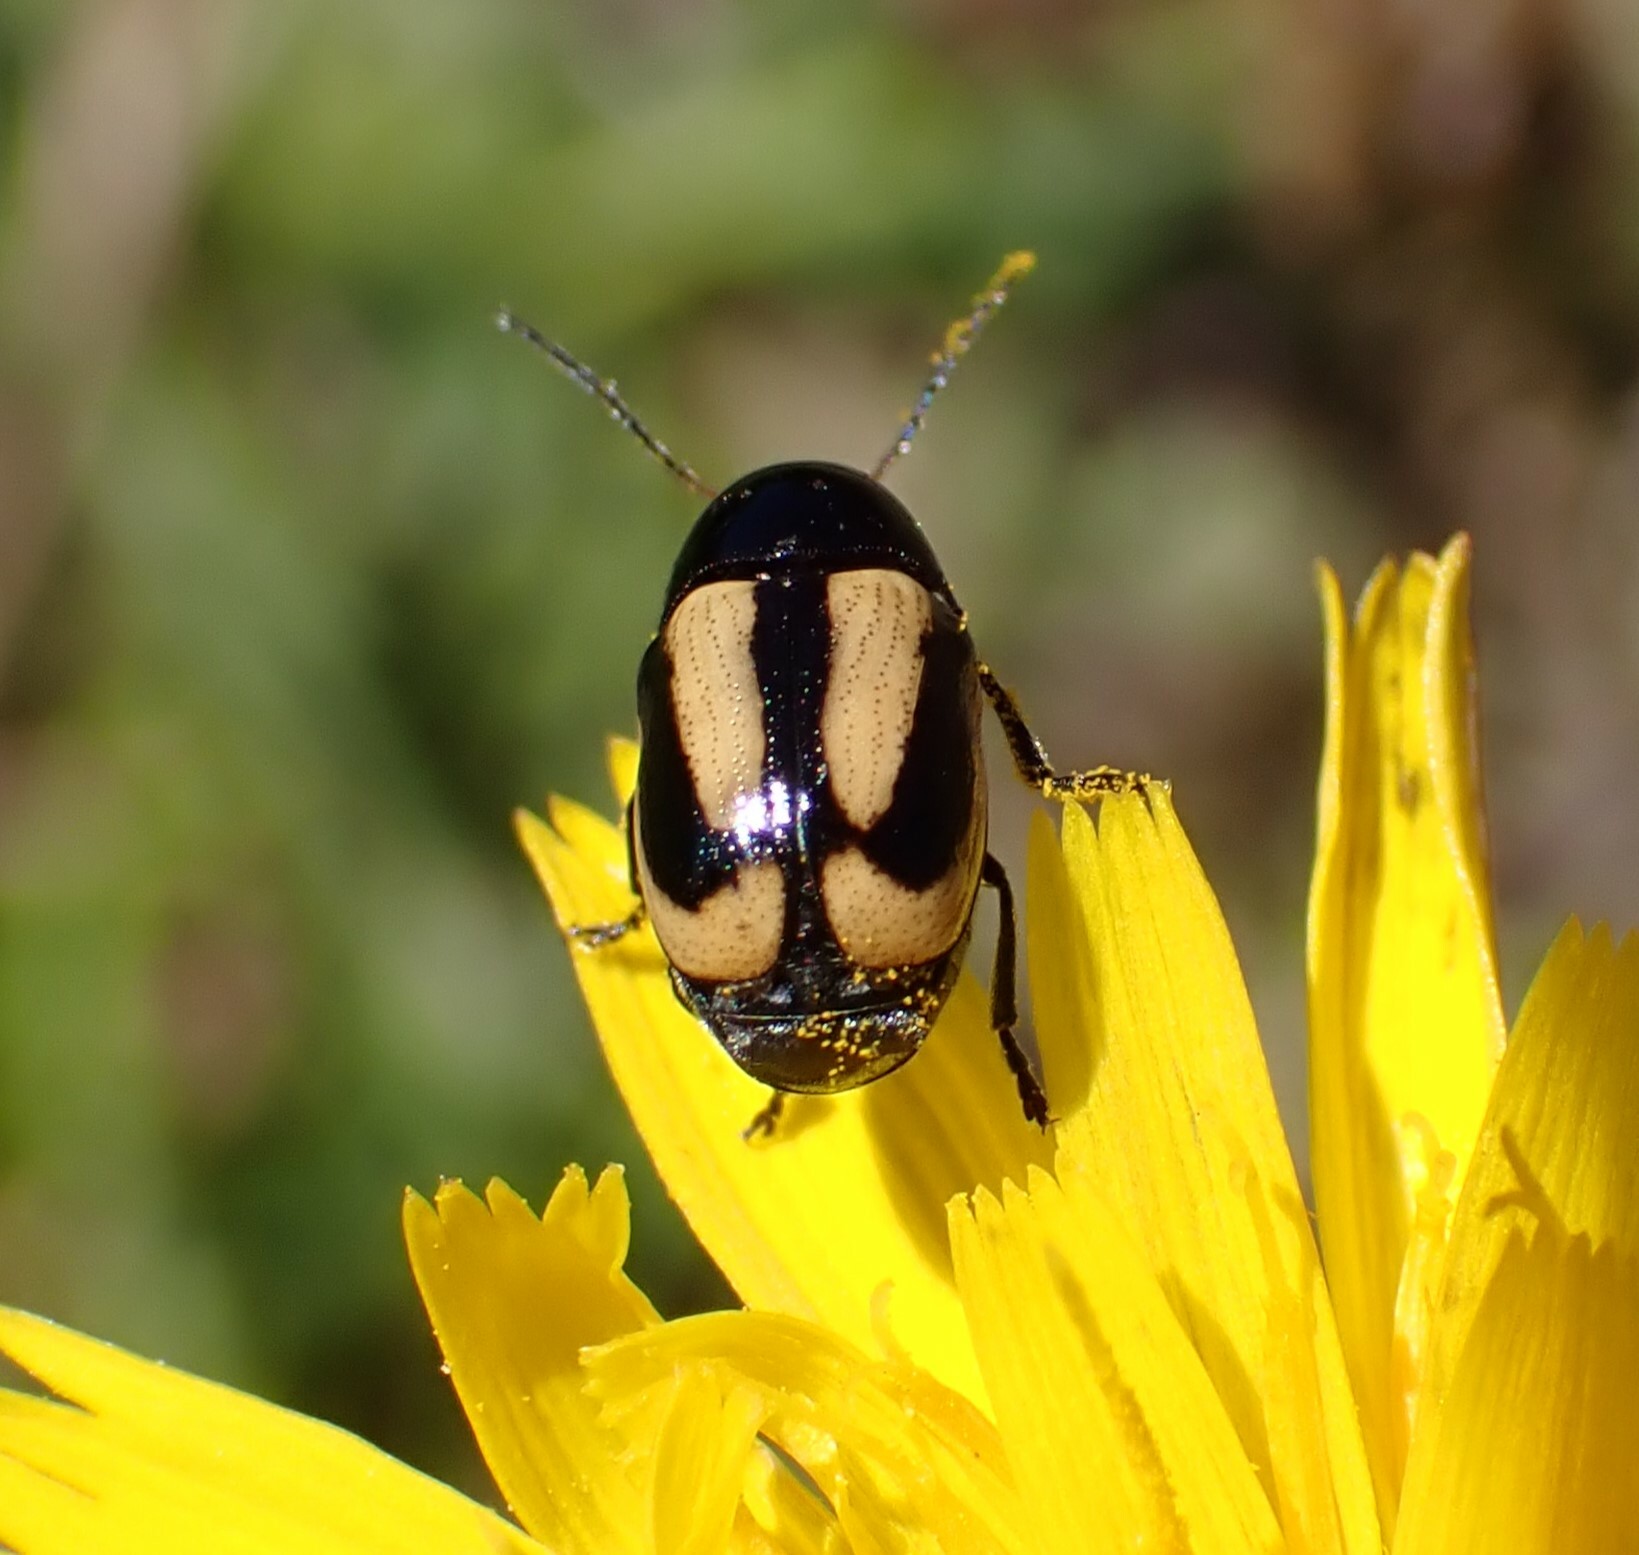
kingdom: Animalia
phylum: Arthropoda
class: Insecta
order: Coleoptera
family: Chrysomelidae
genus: Acalymma
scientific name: Acalymma vittatum
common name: Striped cucumber beetle
